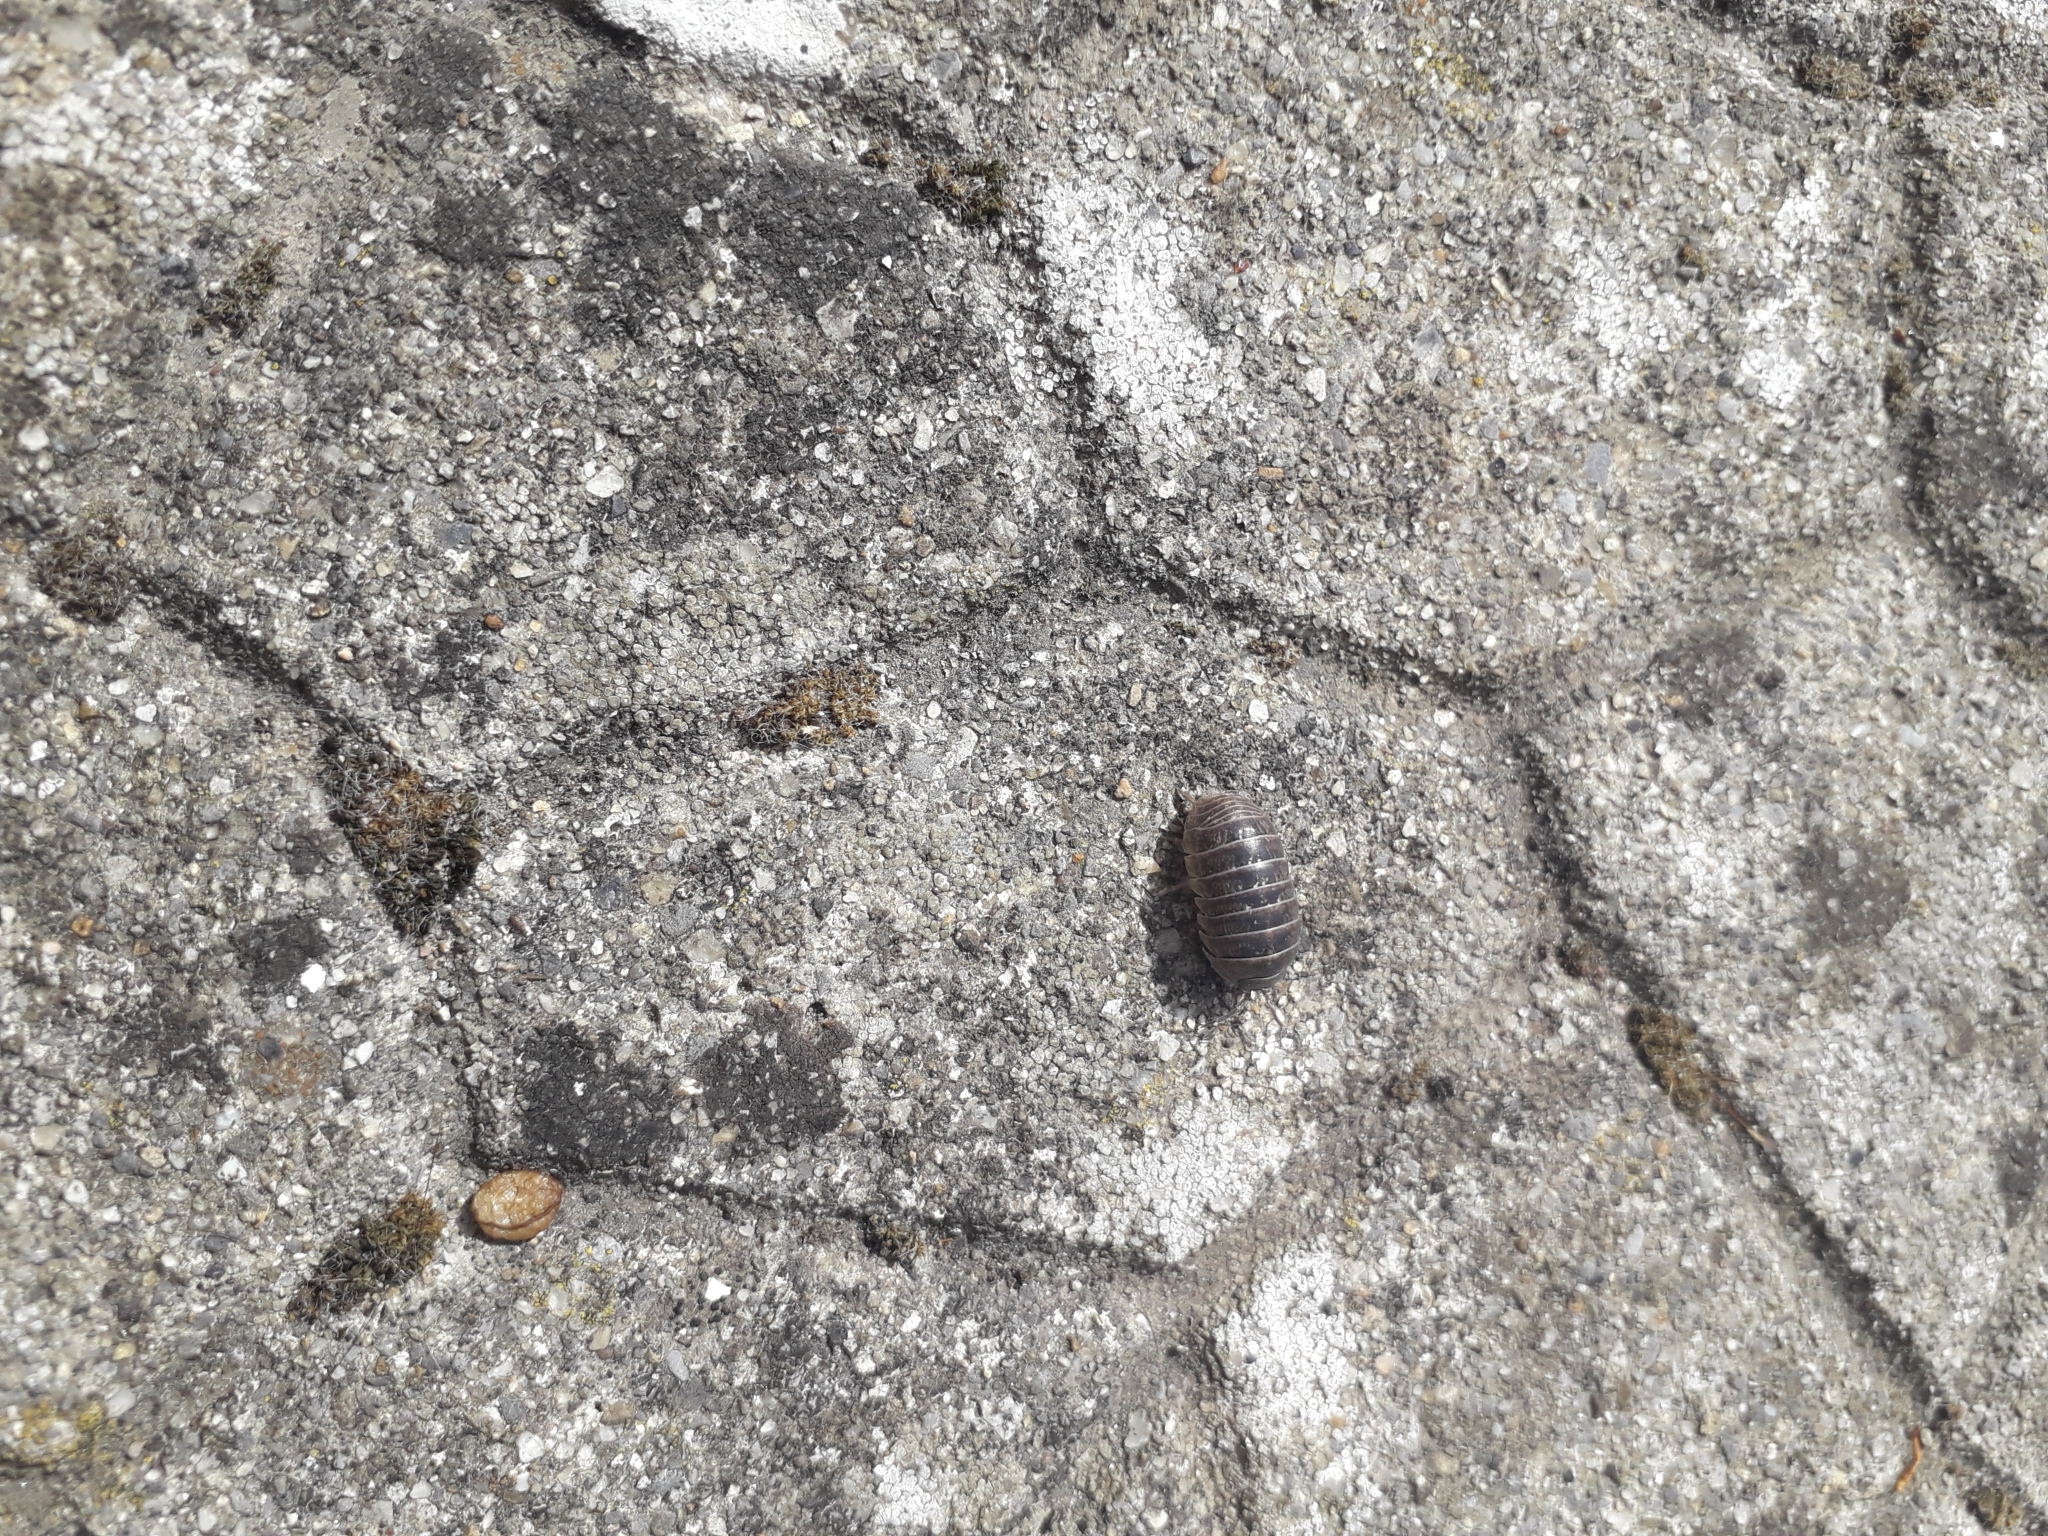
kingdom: Animalia
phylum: Arthropoda
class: Malacostraca
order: Isopoda
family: Armadillidiidae
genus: Armadillidium
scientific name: Armadillidium vulgare
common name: Common pill woodlouse
